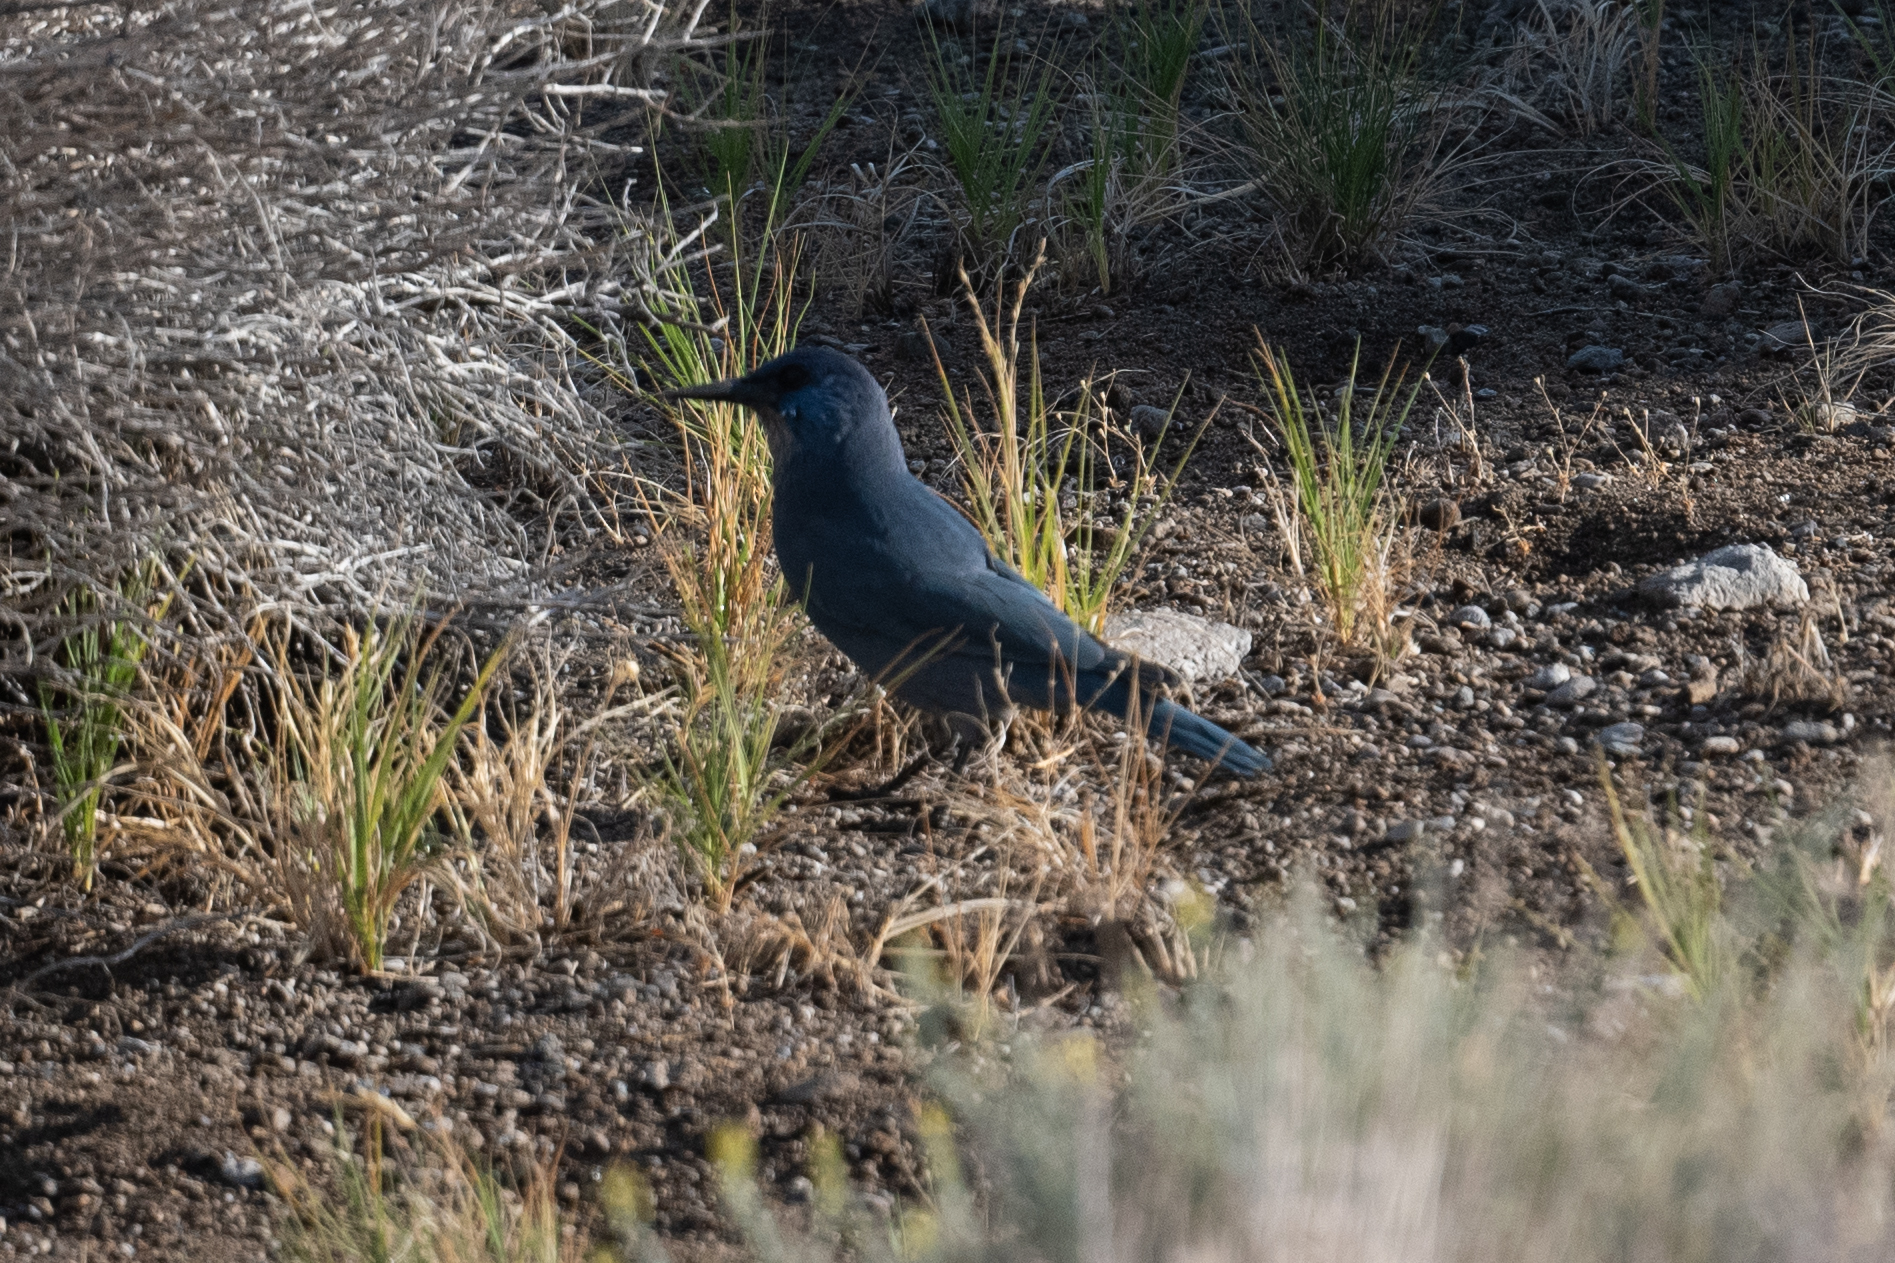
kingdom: Animalia
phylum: Chordata
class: Aves
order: Passeriformes
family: Corvidae
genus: Gymnorhinus
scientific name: Gymnorhinus cyanocephalus
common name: Pinyon jay
